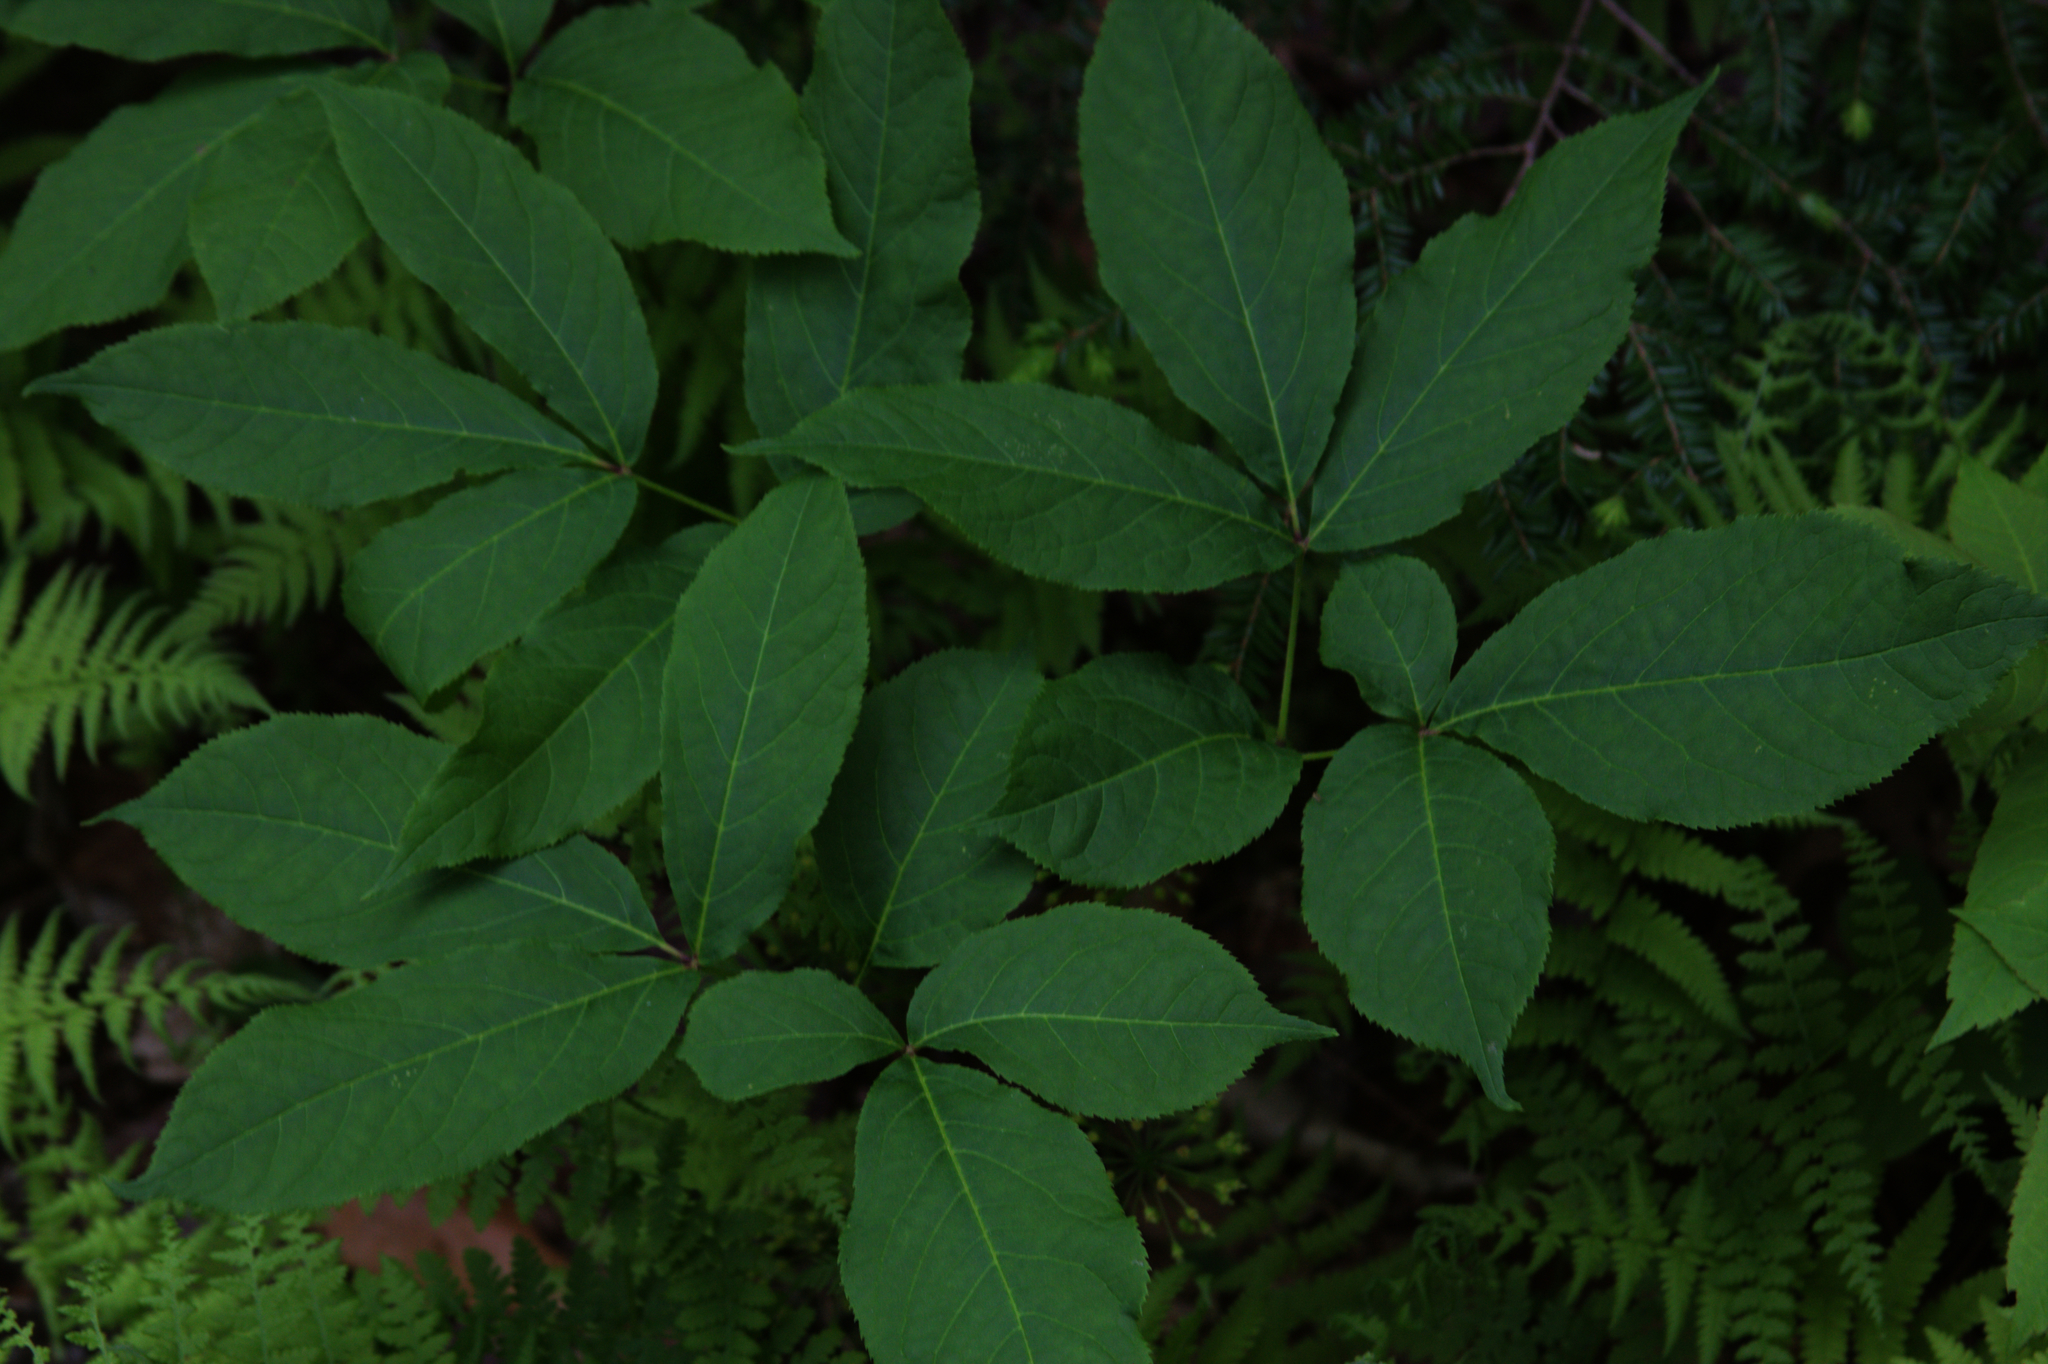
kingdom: Plantae
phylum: Tracheophyta
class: Magnoliopsida
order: Apiales
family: Araliaceae
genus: Aralia
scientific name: Aralia nudicaulis
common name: Wild sarsaparilla
